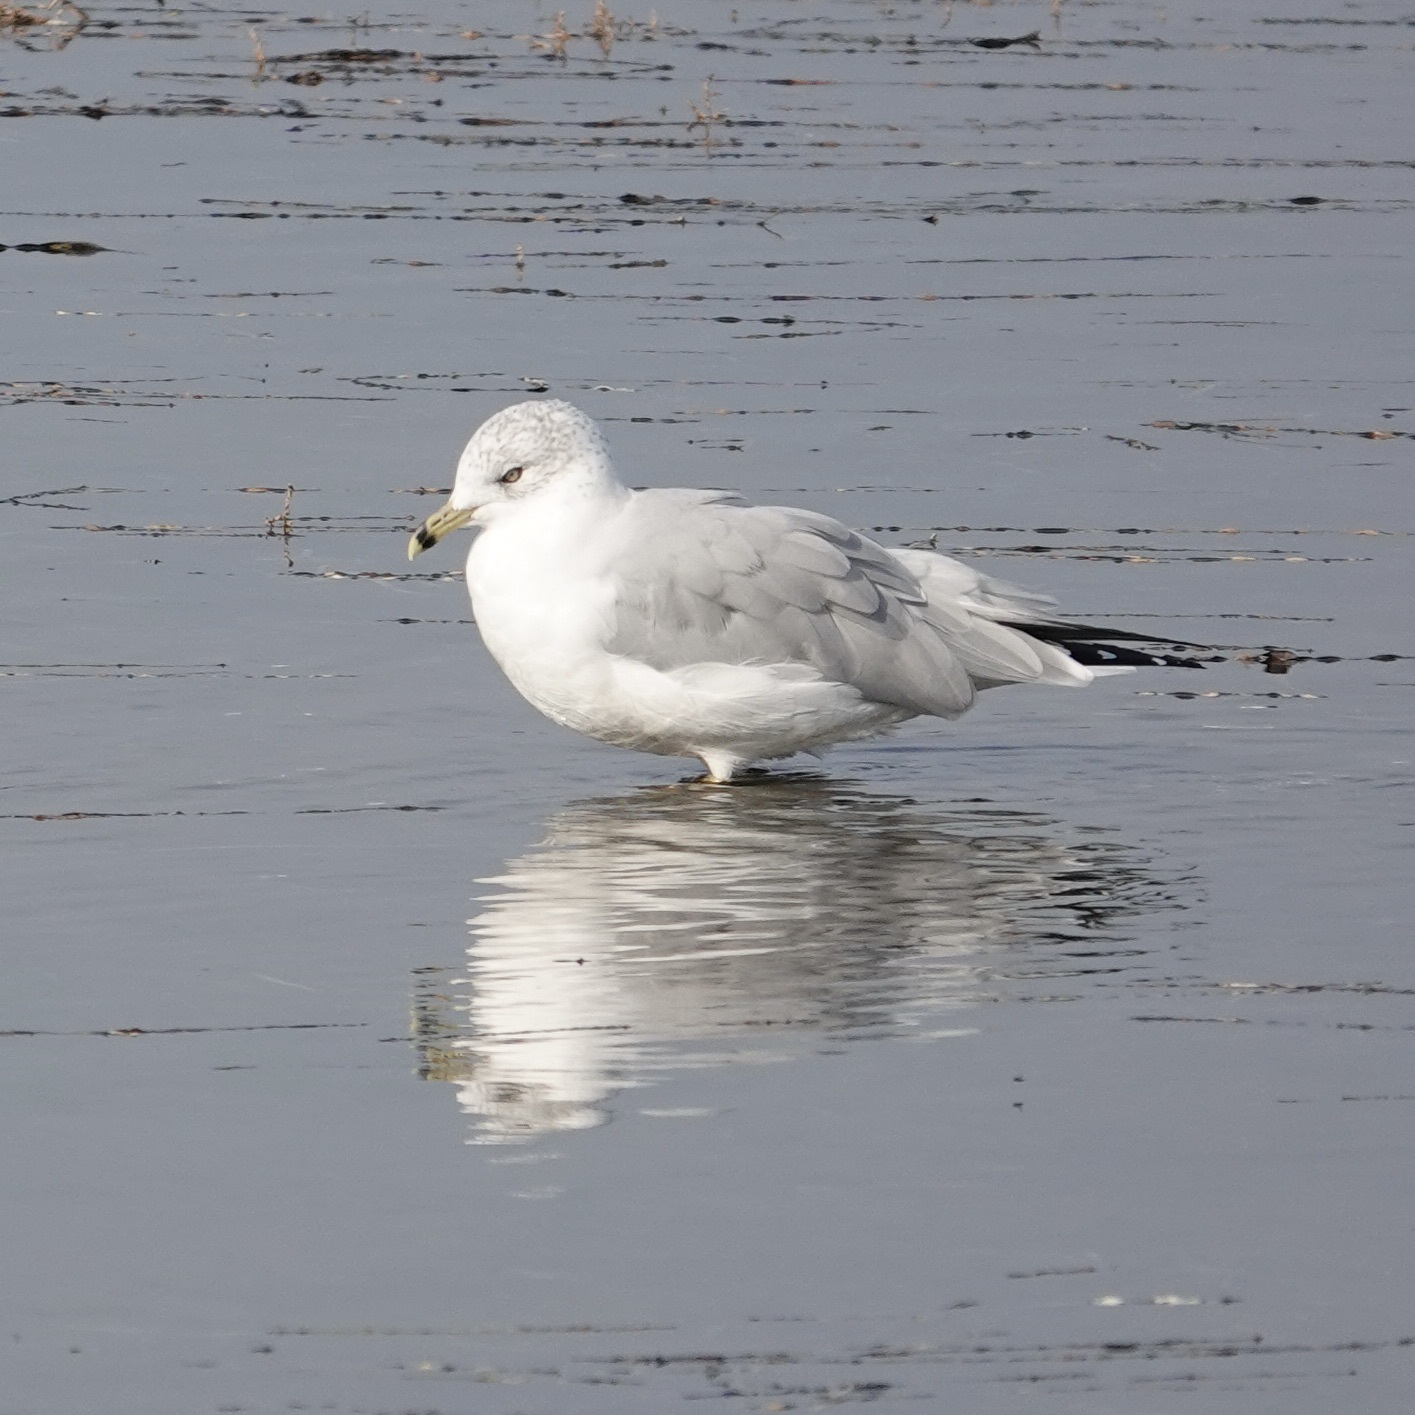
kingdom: Animalia
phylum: Chordata
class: Aves
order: Charadriiformes
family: Laridae
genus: Larus
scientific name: Larus delawarensis
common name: Ring-billed gull
